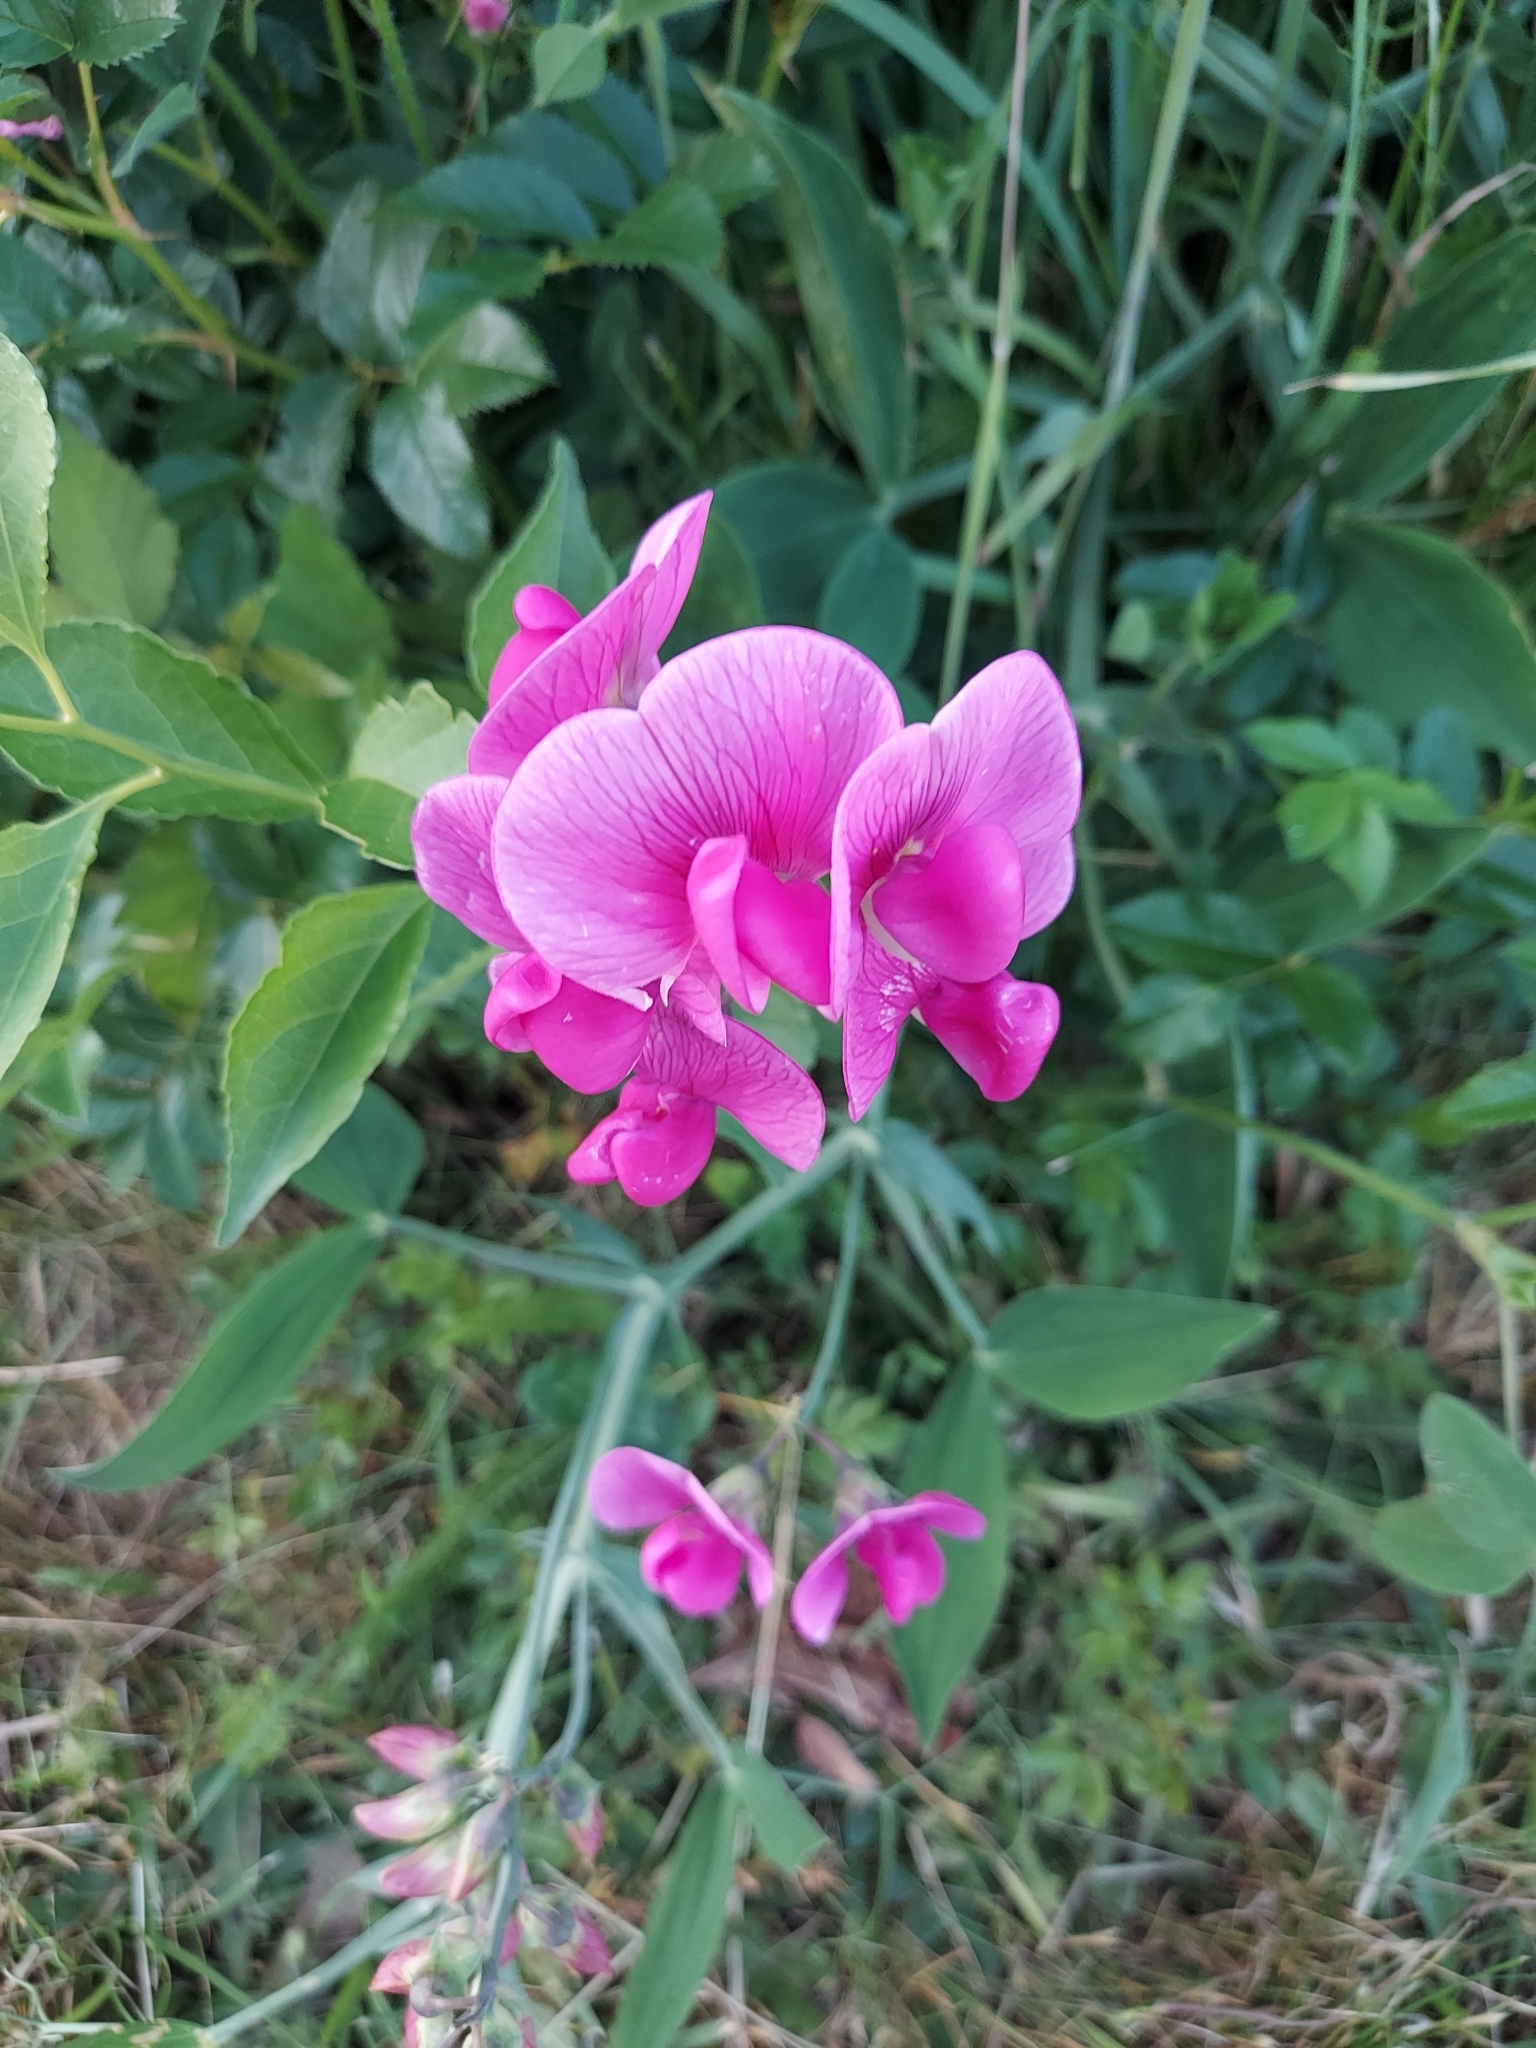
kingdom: Plantae
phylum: Tracheophyta
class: Magnoliopsida
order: Fabales
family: Fabaceae
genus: Lathyrus
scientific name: Lathyrus latifolius
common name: Perennial pea
